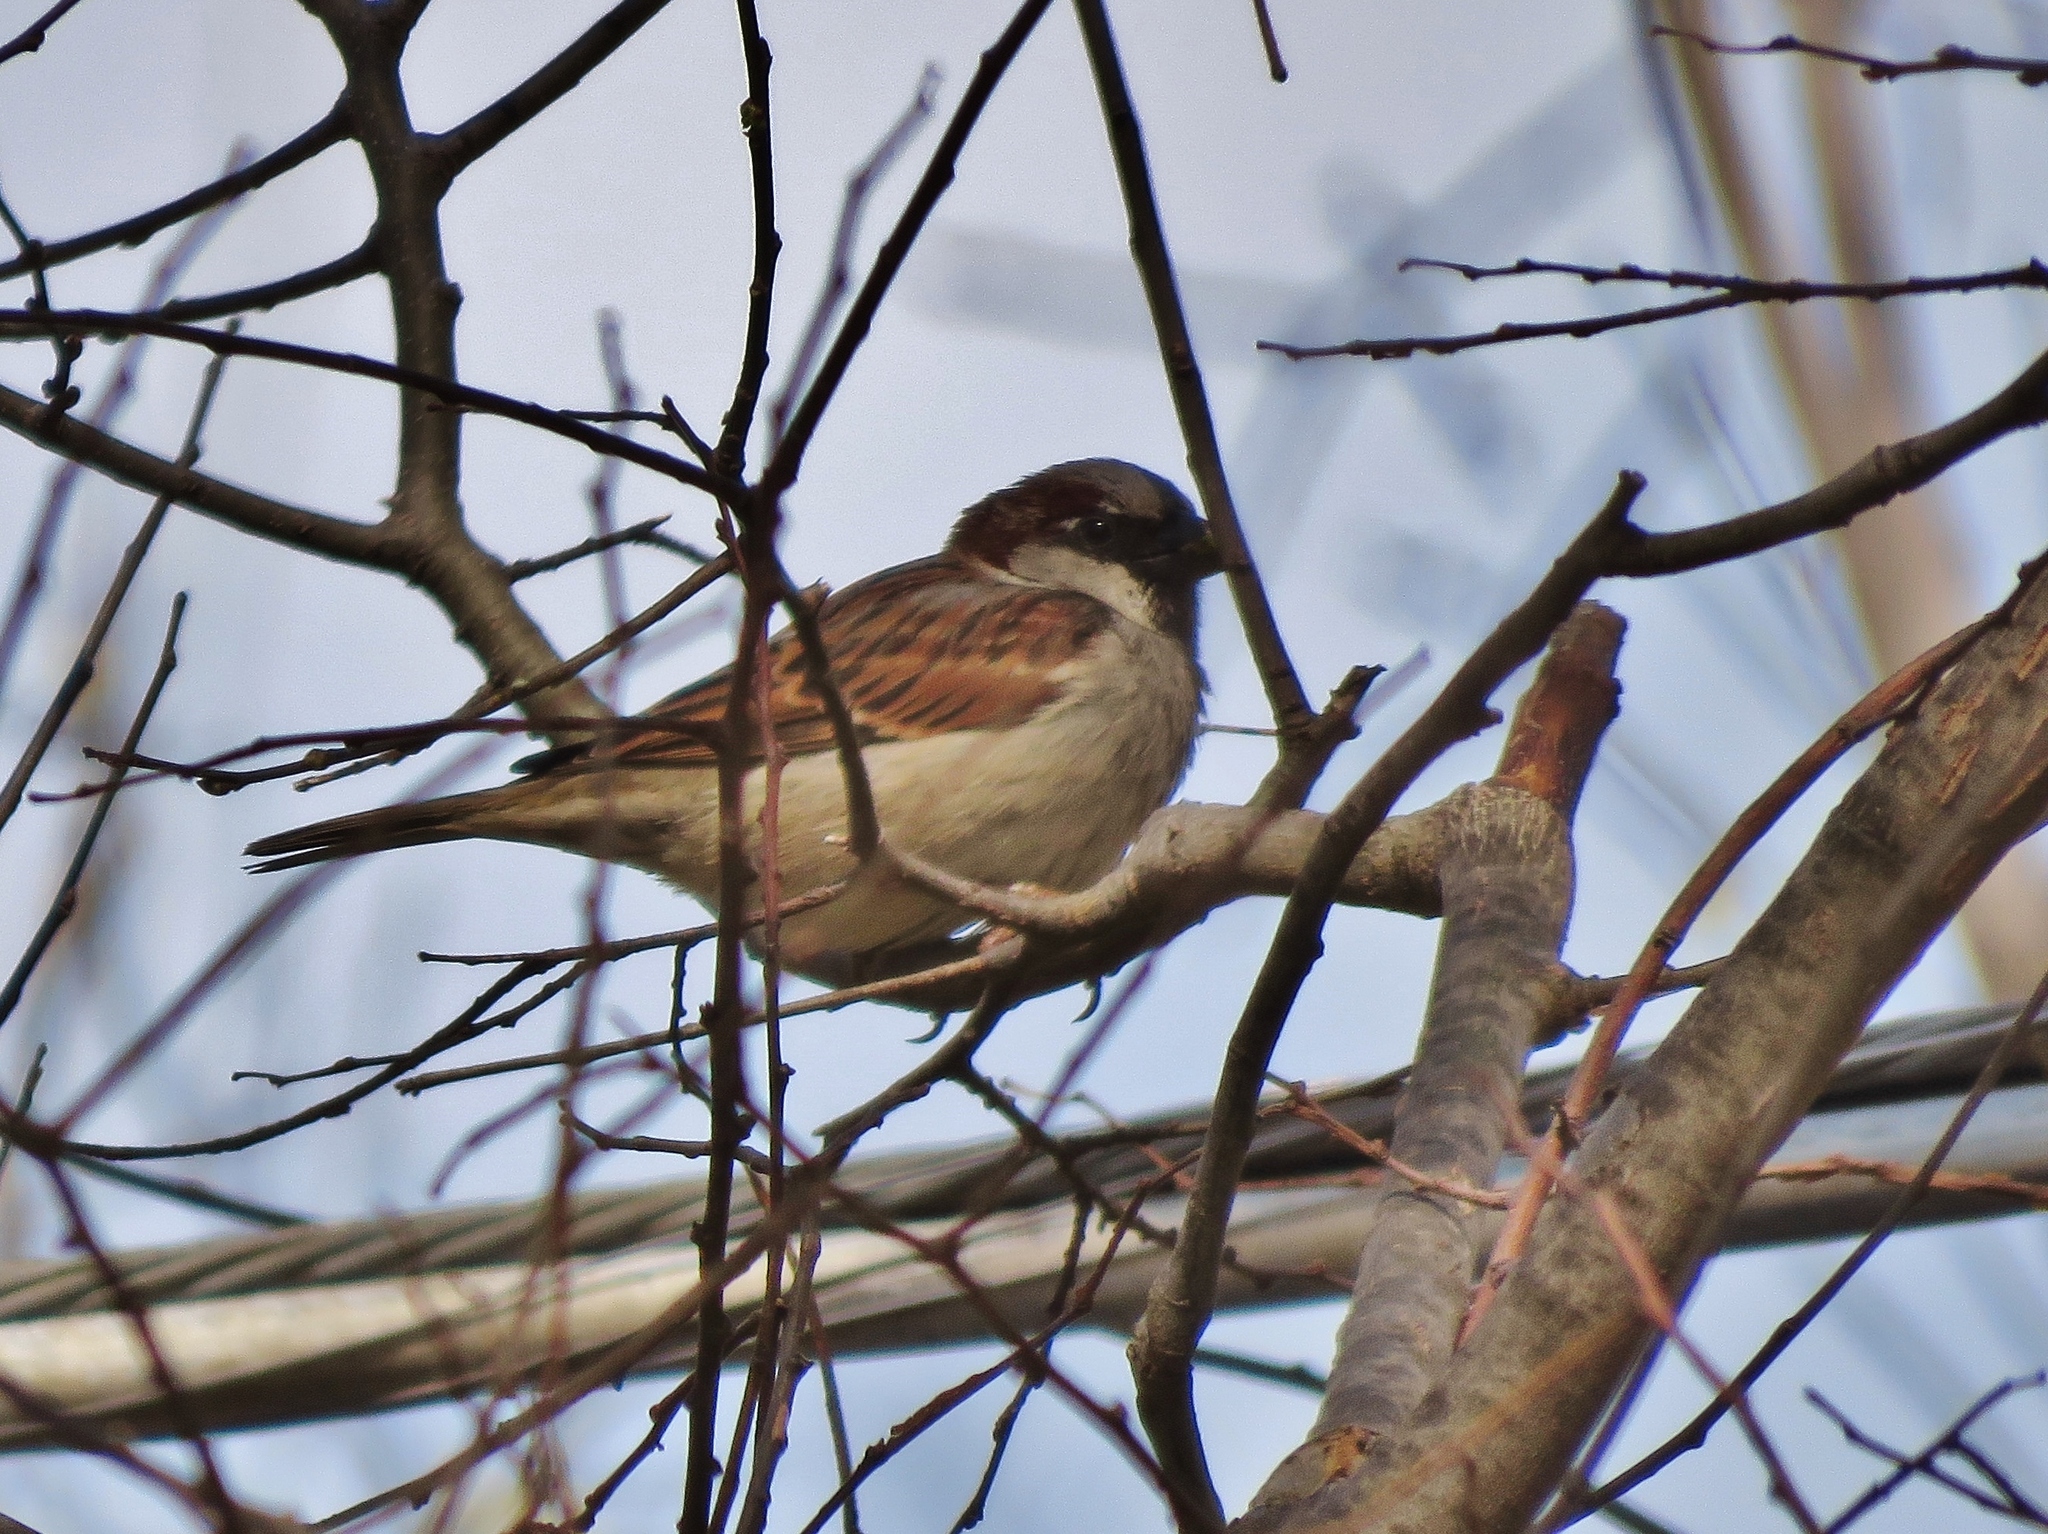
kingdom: Animalia
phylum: Chordata
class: Aves
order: Passeriformes
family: Passeridae
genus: Passer
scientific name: Passer domesticus
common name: House sparrow
